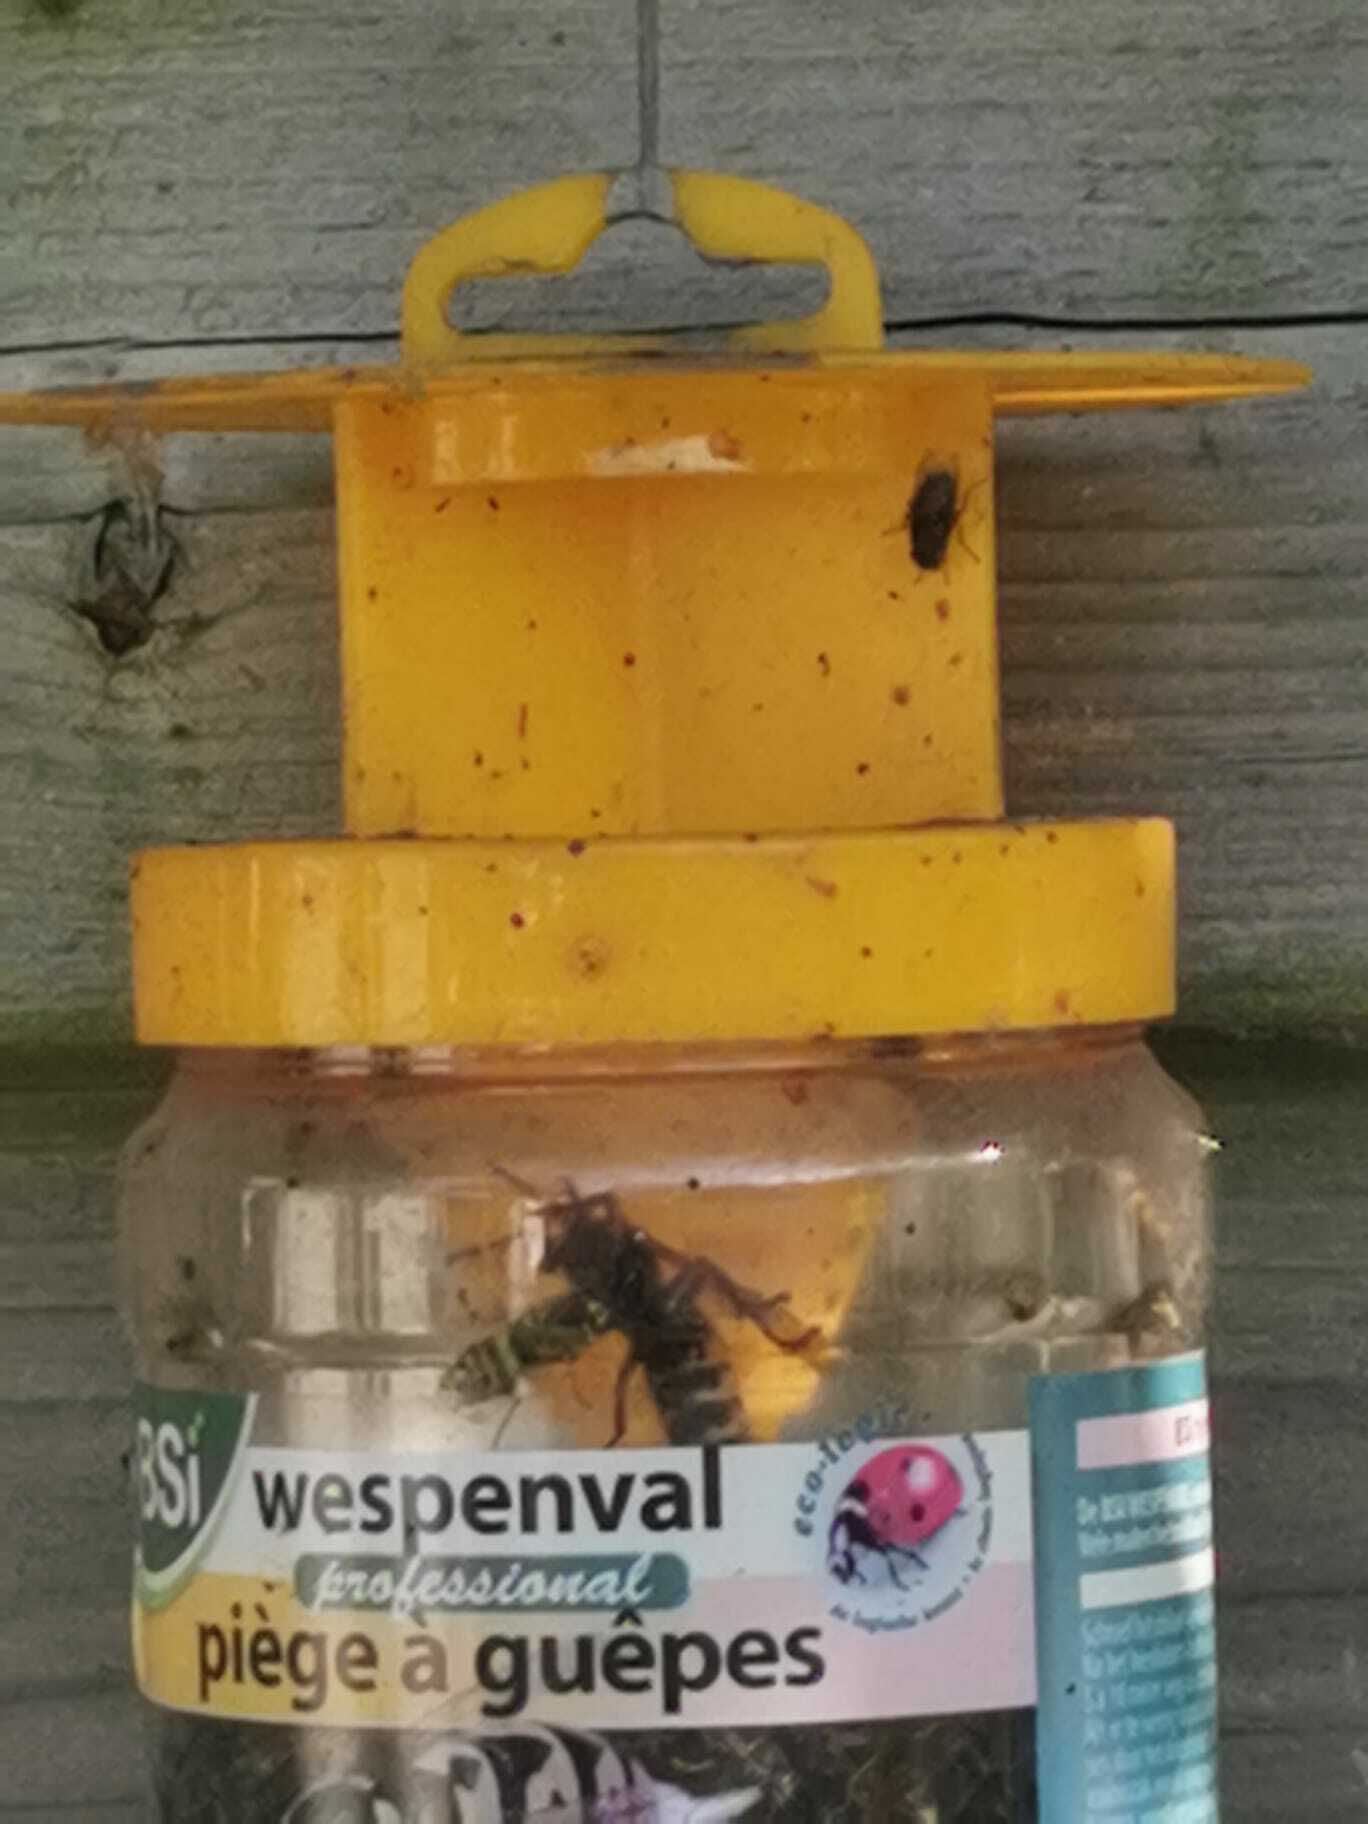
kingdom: Animalia
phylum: Arthropoda
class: Insecta
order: Hymenoptera
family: Vespidae
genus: Vespa
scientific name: Vespa crabro
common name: Hornet
